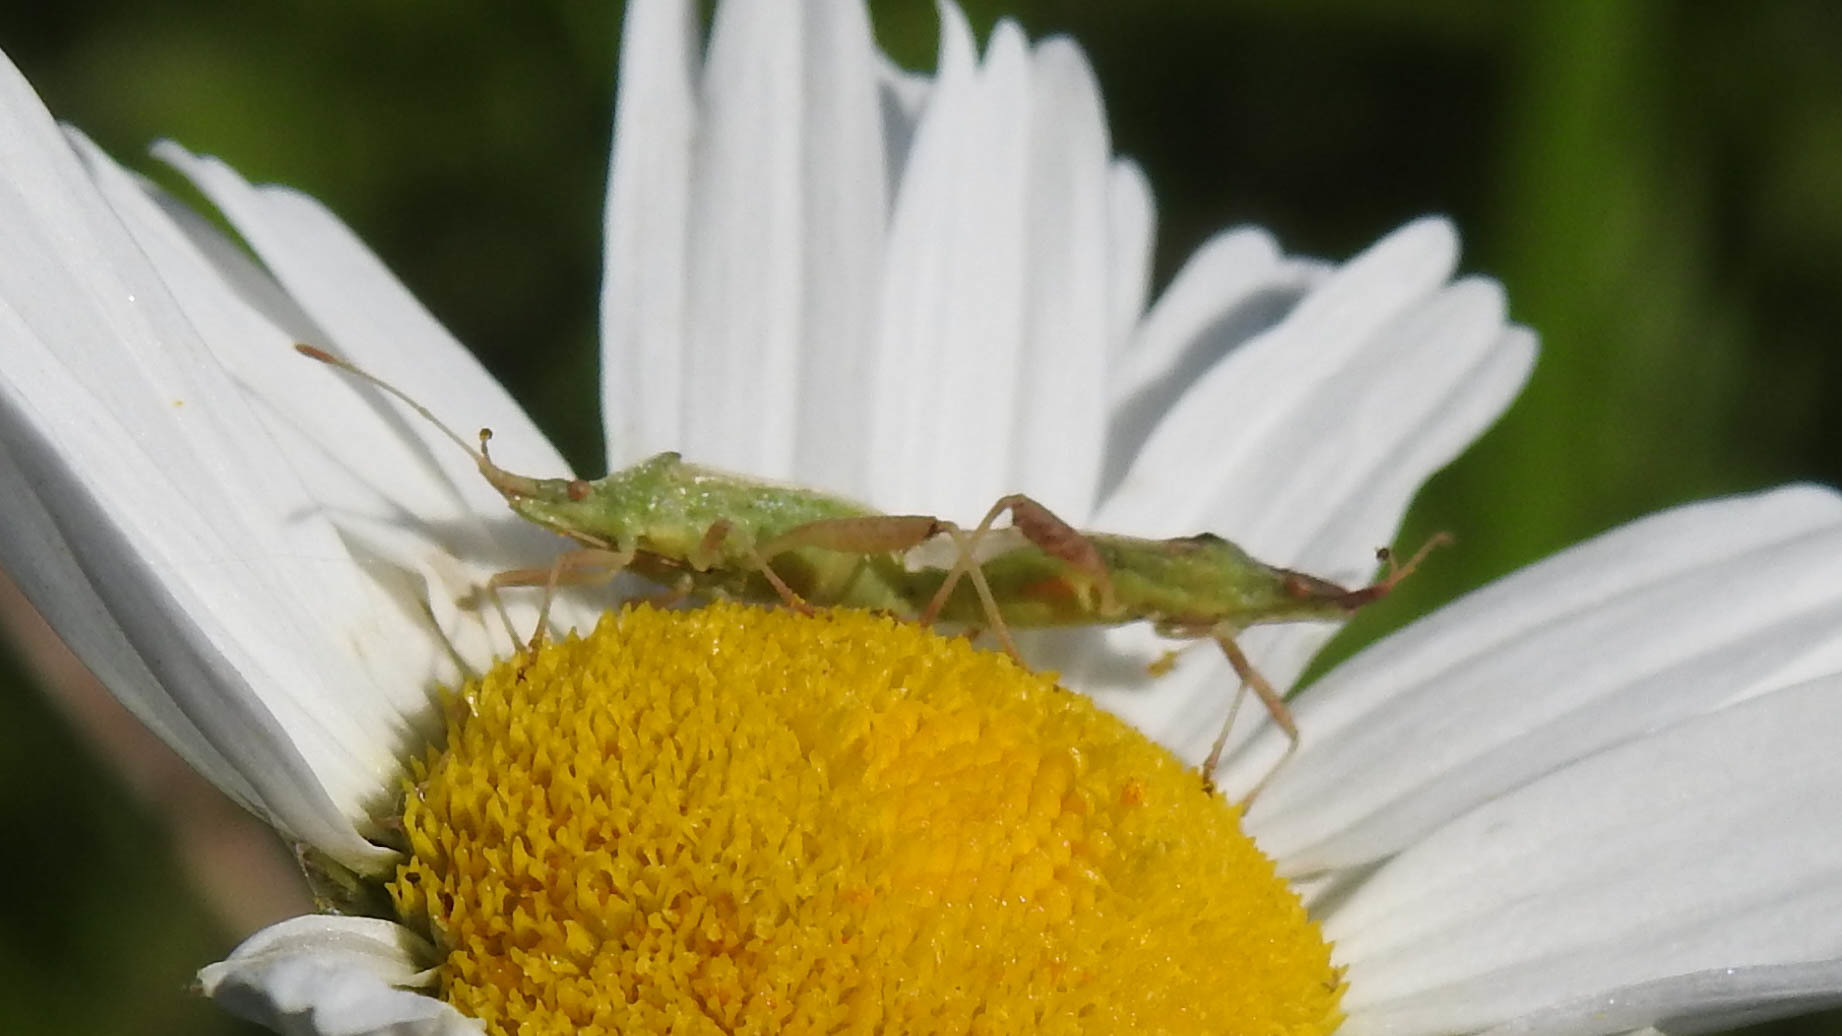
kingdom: Animalia
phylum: Arthropoda
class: Insecta
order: Hemiptera
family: Rhopalidae
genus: Harmostes
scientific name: Harmostes reflexulus
